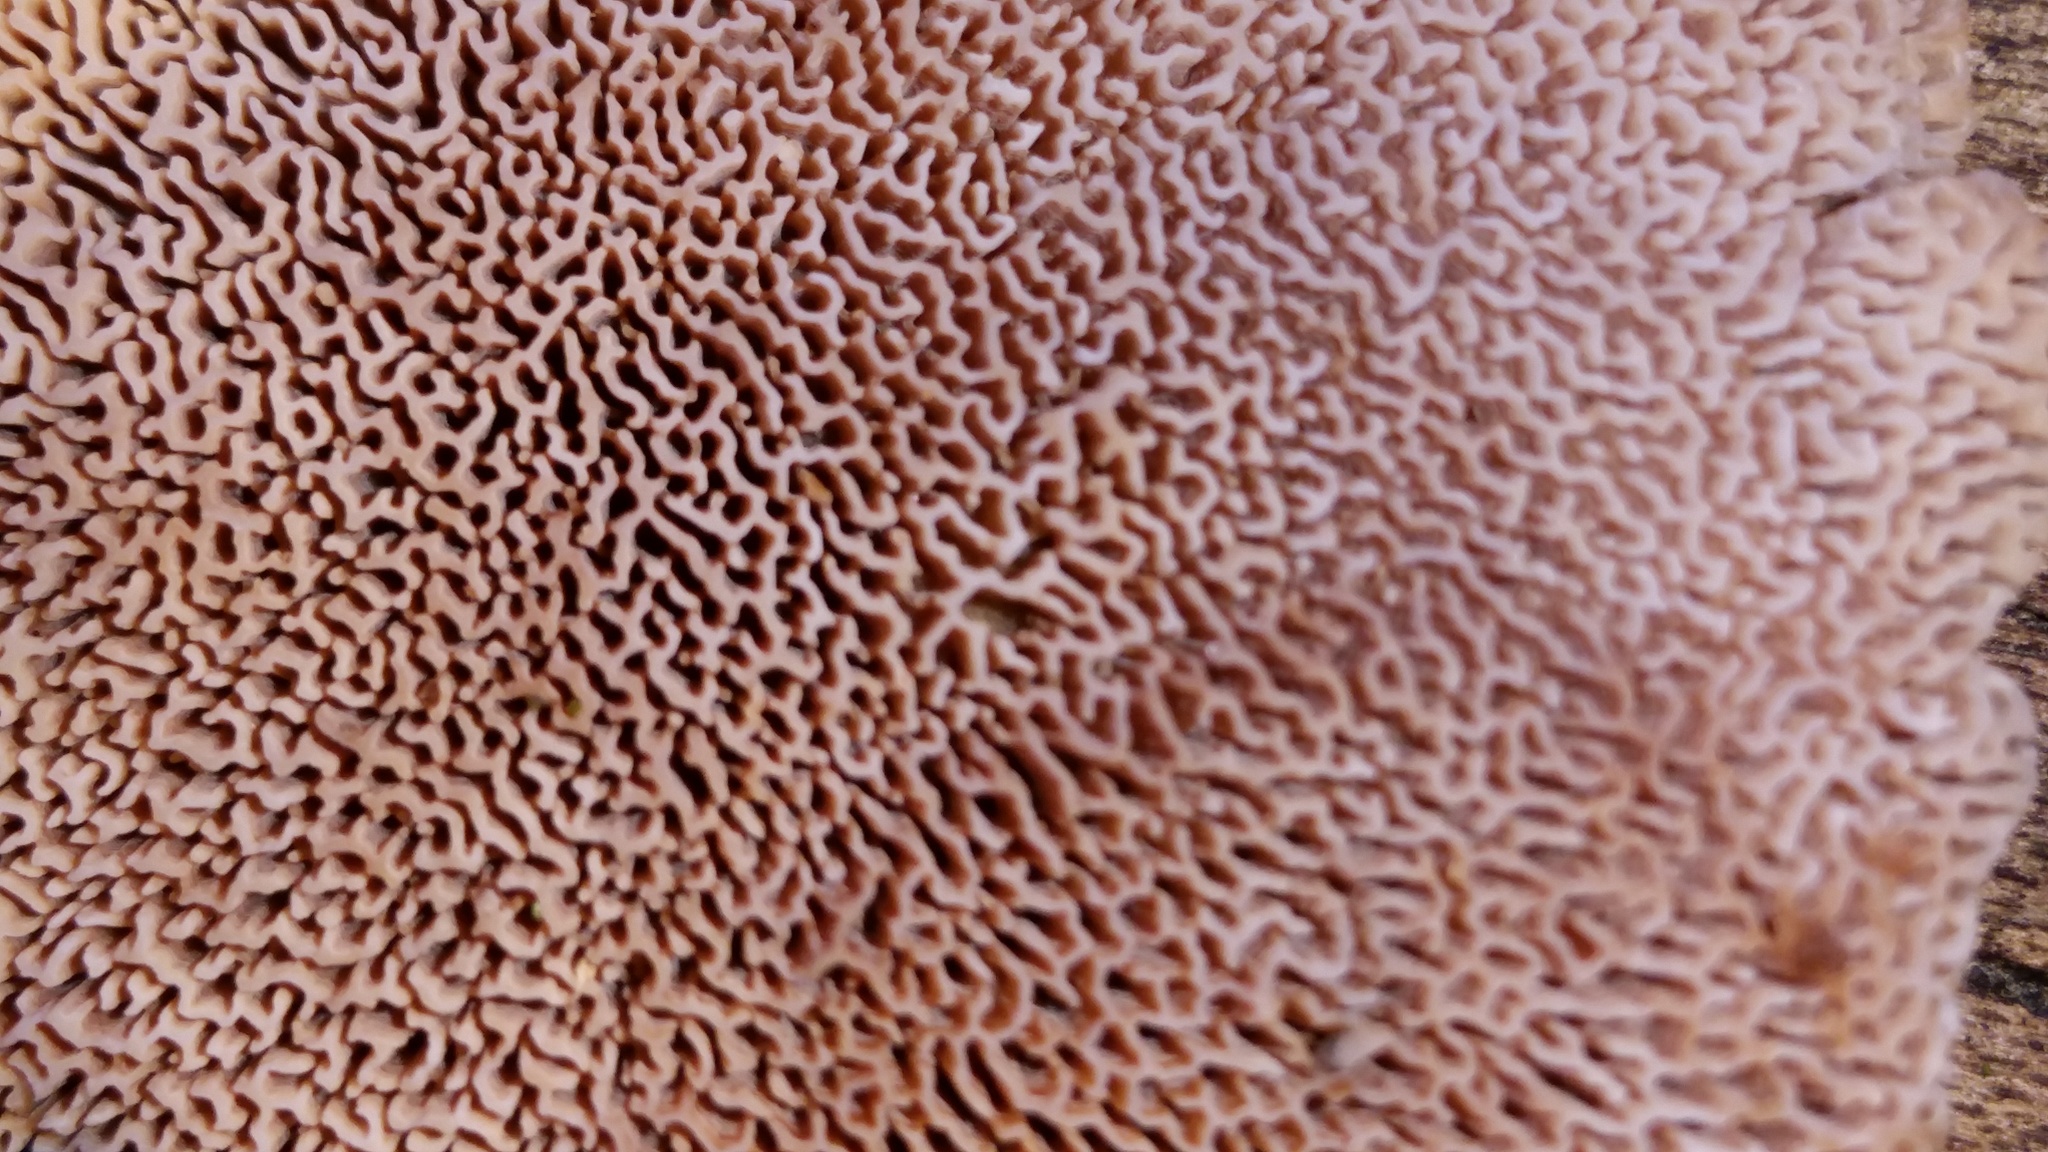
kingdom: Fungi
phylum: Basidiomycota
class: Agaricomycetes
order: Polyporales
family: Irpicaceae
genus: Trametopsis
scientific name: Trametopsis cervina
